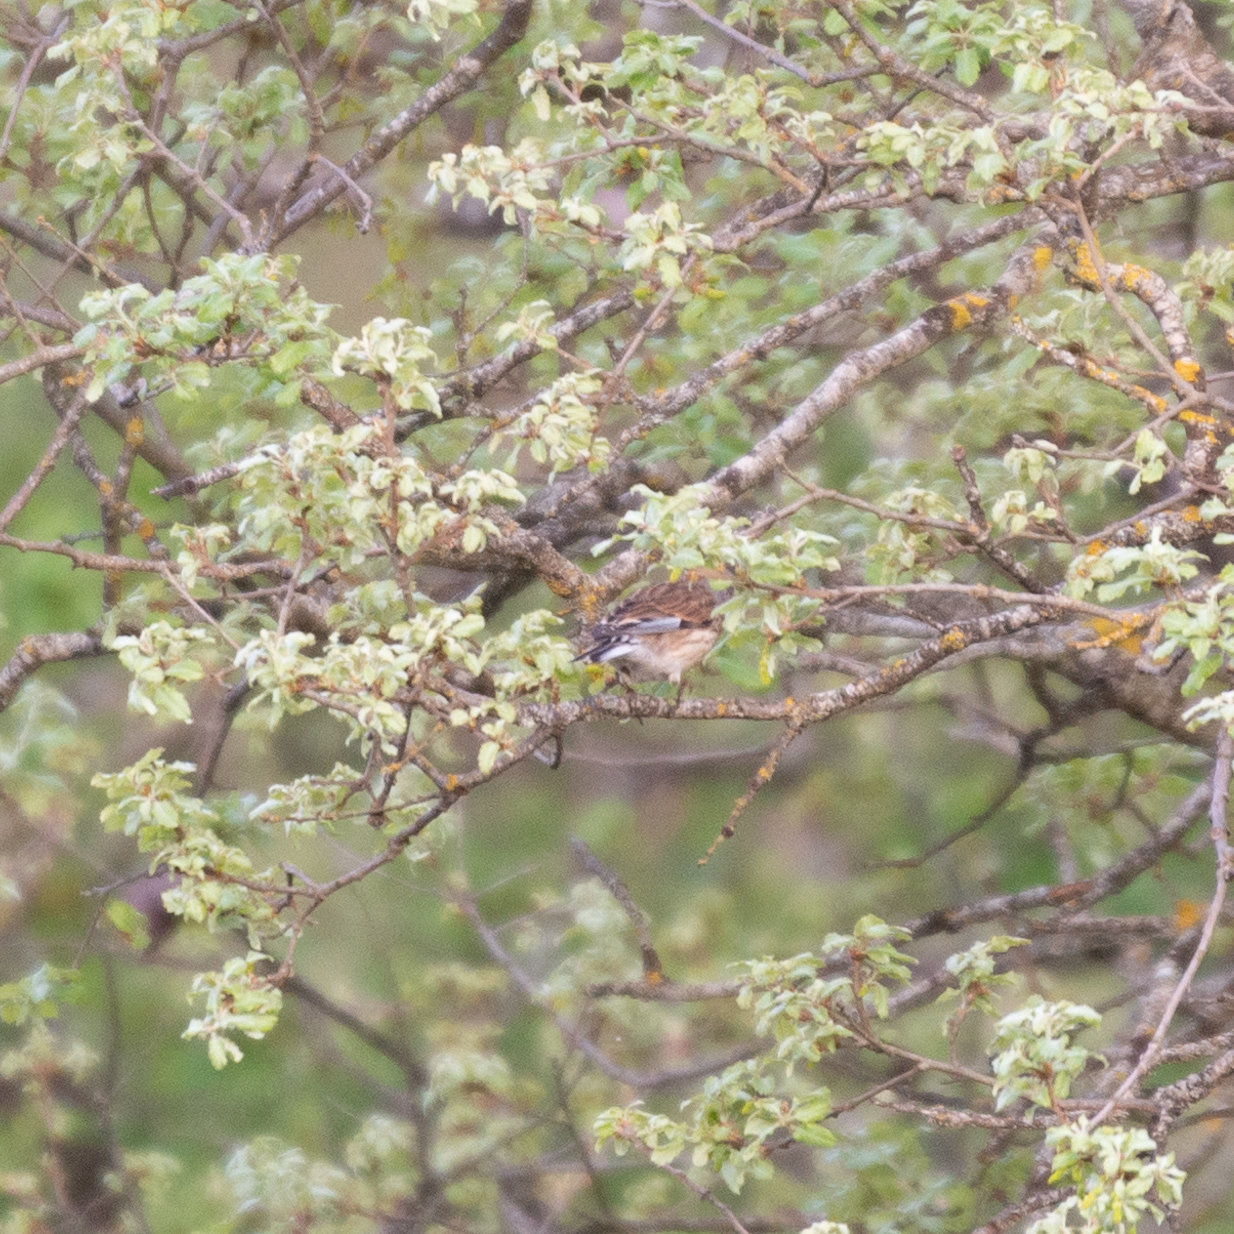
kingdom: Animalia
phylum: Chordata
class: Aves
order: Passeriformes
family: Fringillidae
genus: Linaria
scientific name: Linaria cannabina
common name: Common linnet
